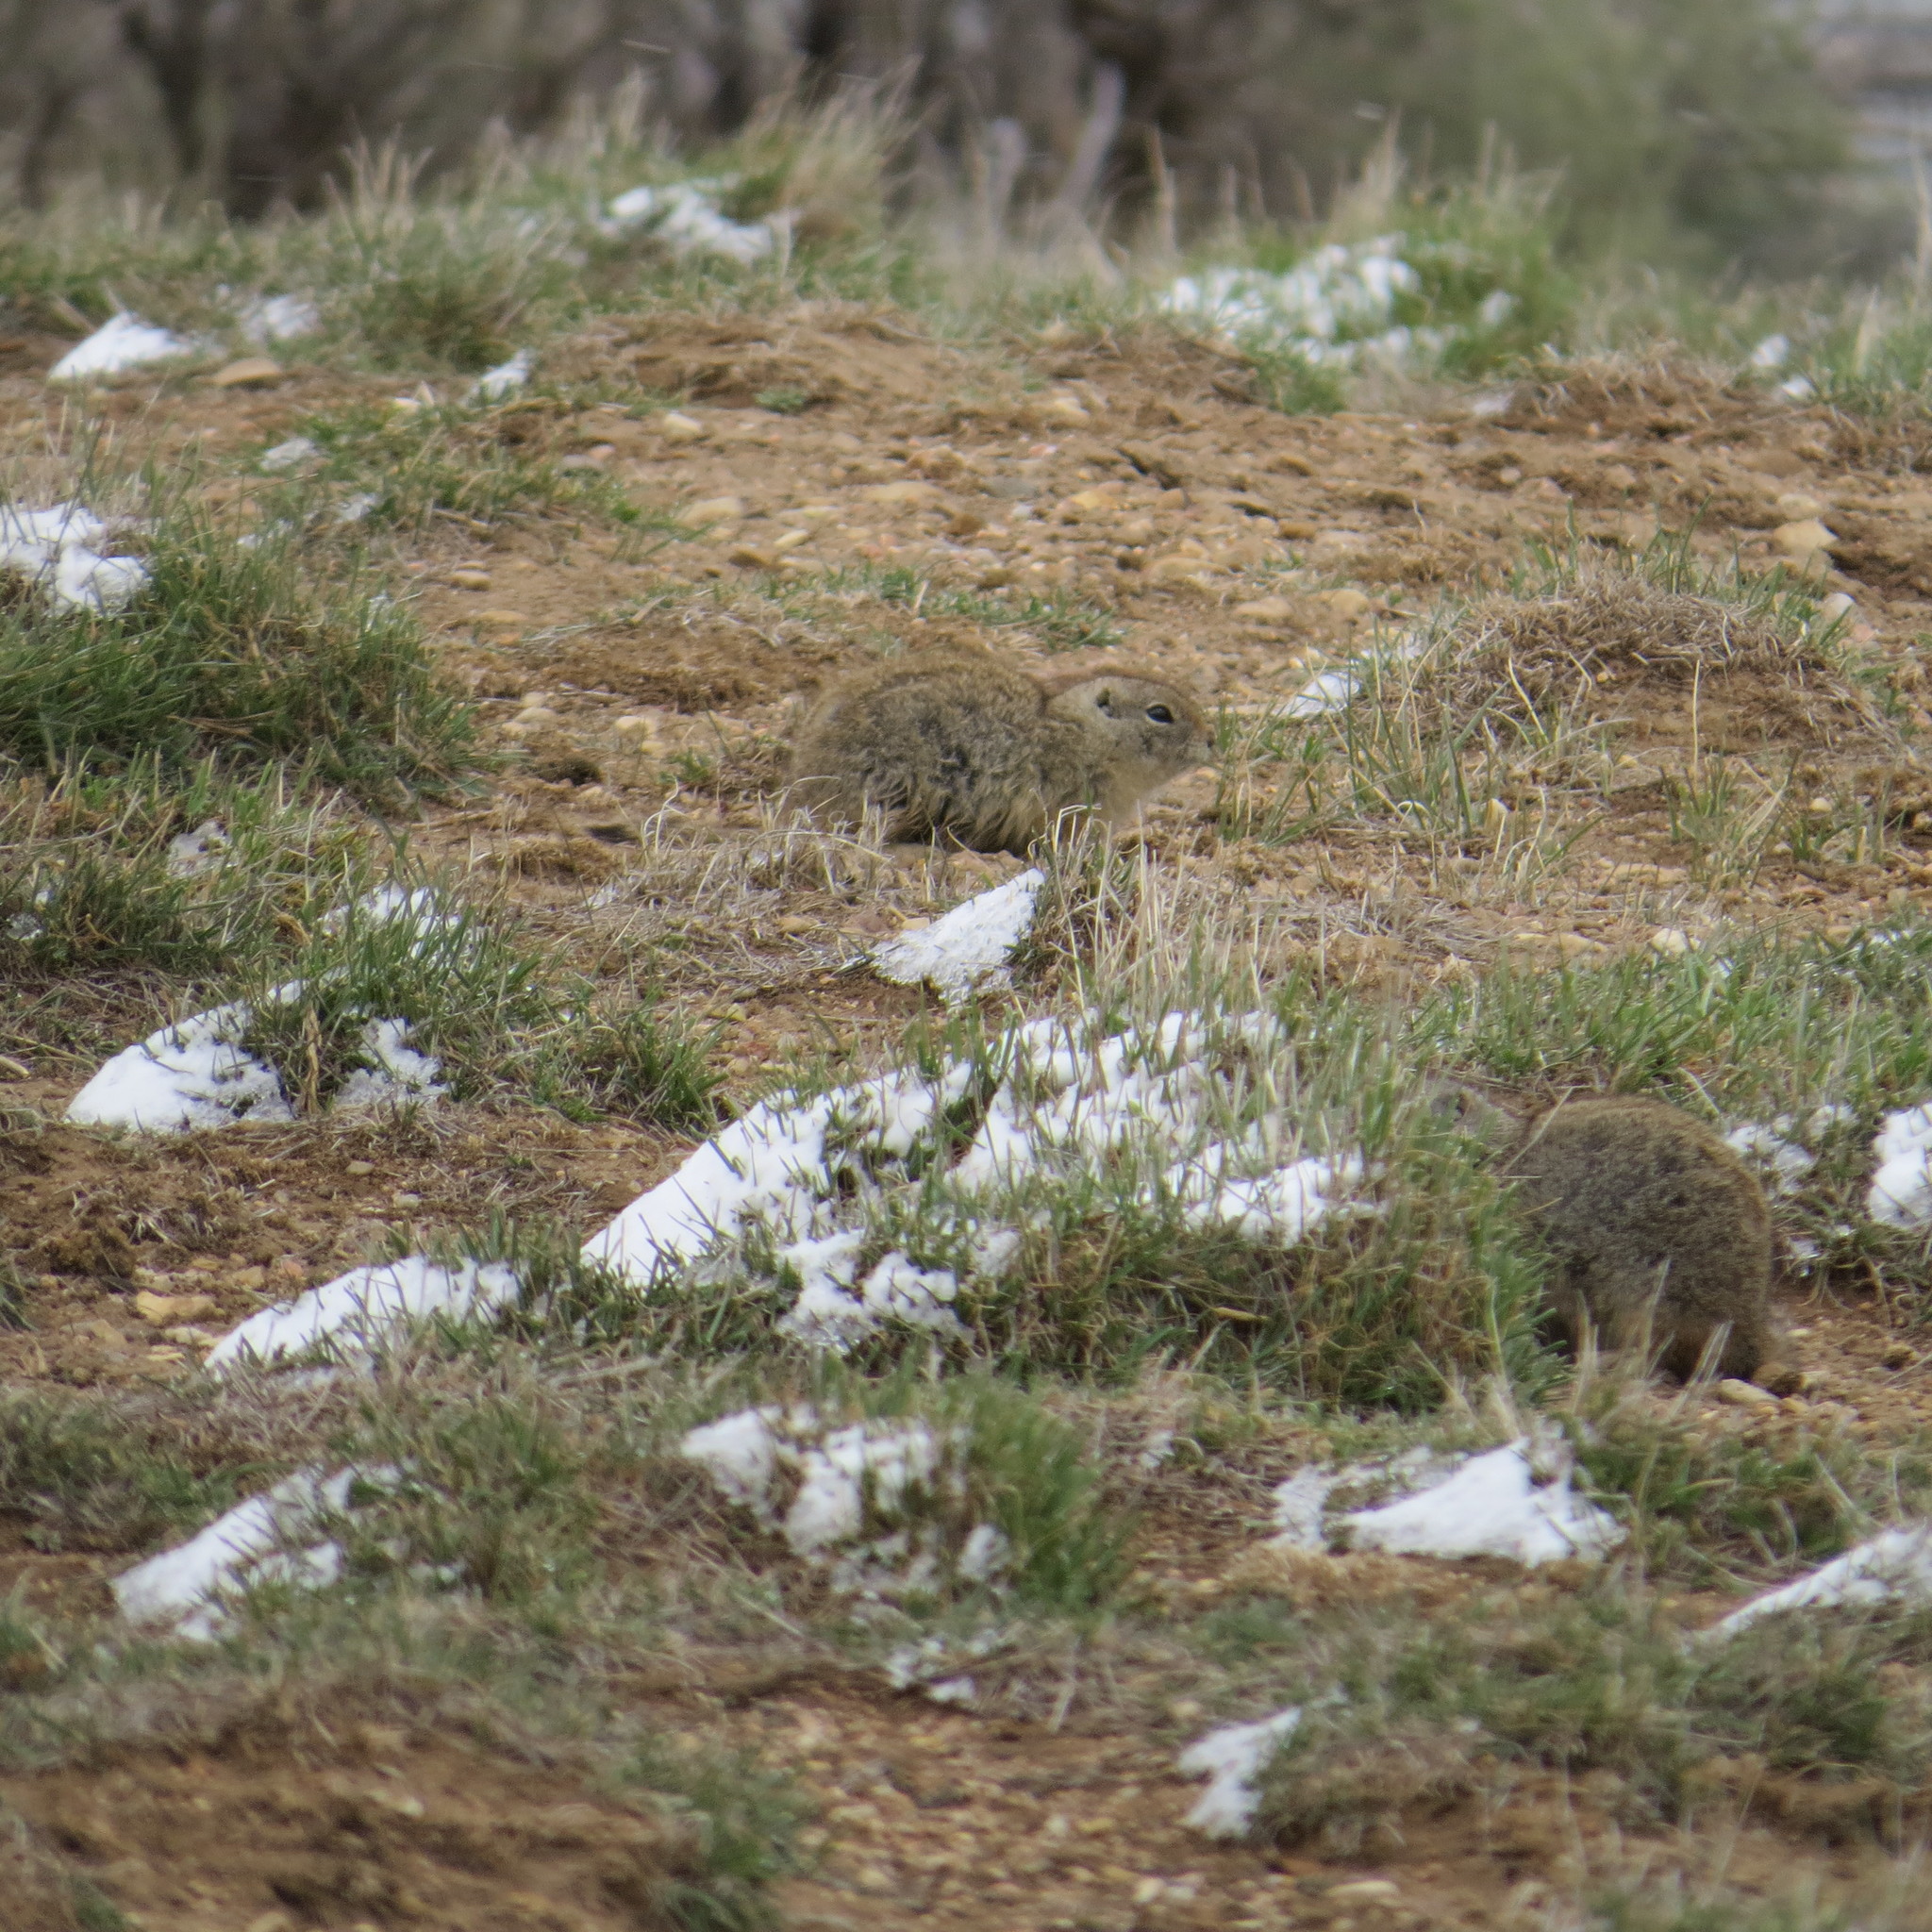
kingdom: Animalia
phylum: Chordata
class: Mammalia
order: Rodentia
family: Sciuridae
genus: Urocitellus
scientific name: Urocitellus elegans
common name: Wyoming ground squirrel
